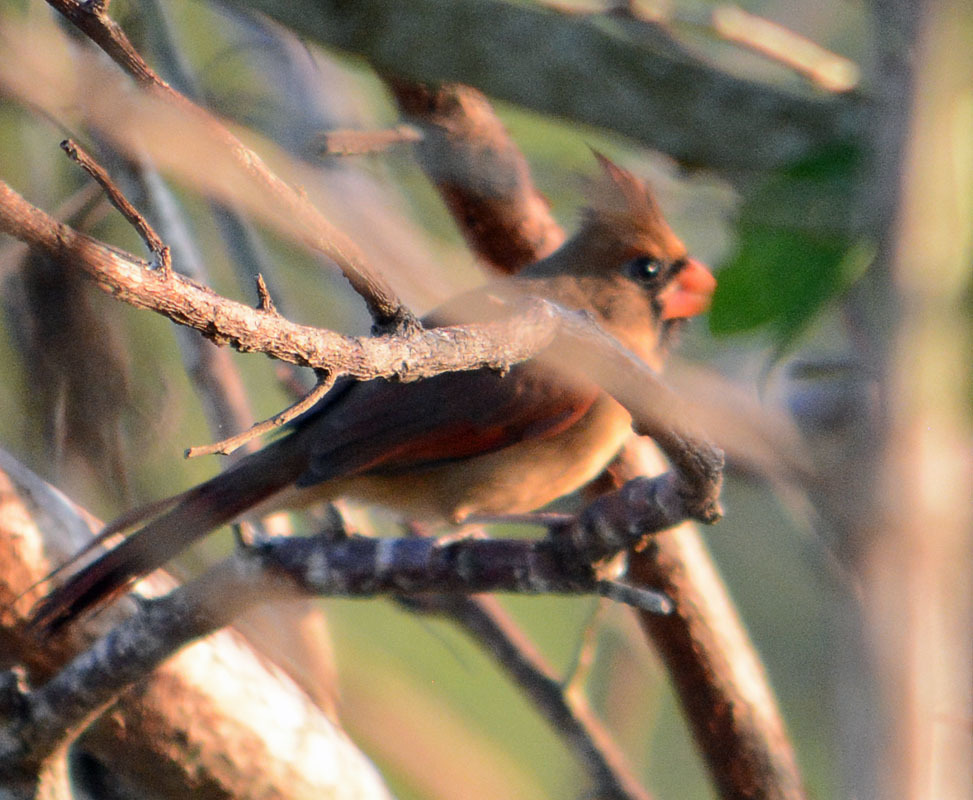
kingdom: Animalia
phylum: Chordata
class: Aves
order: Passeriformes
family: Cardinalidae
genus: Cardinalis
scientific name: Cardinalis cardinalis
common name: Northern cardinal
